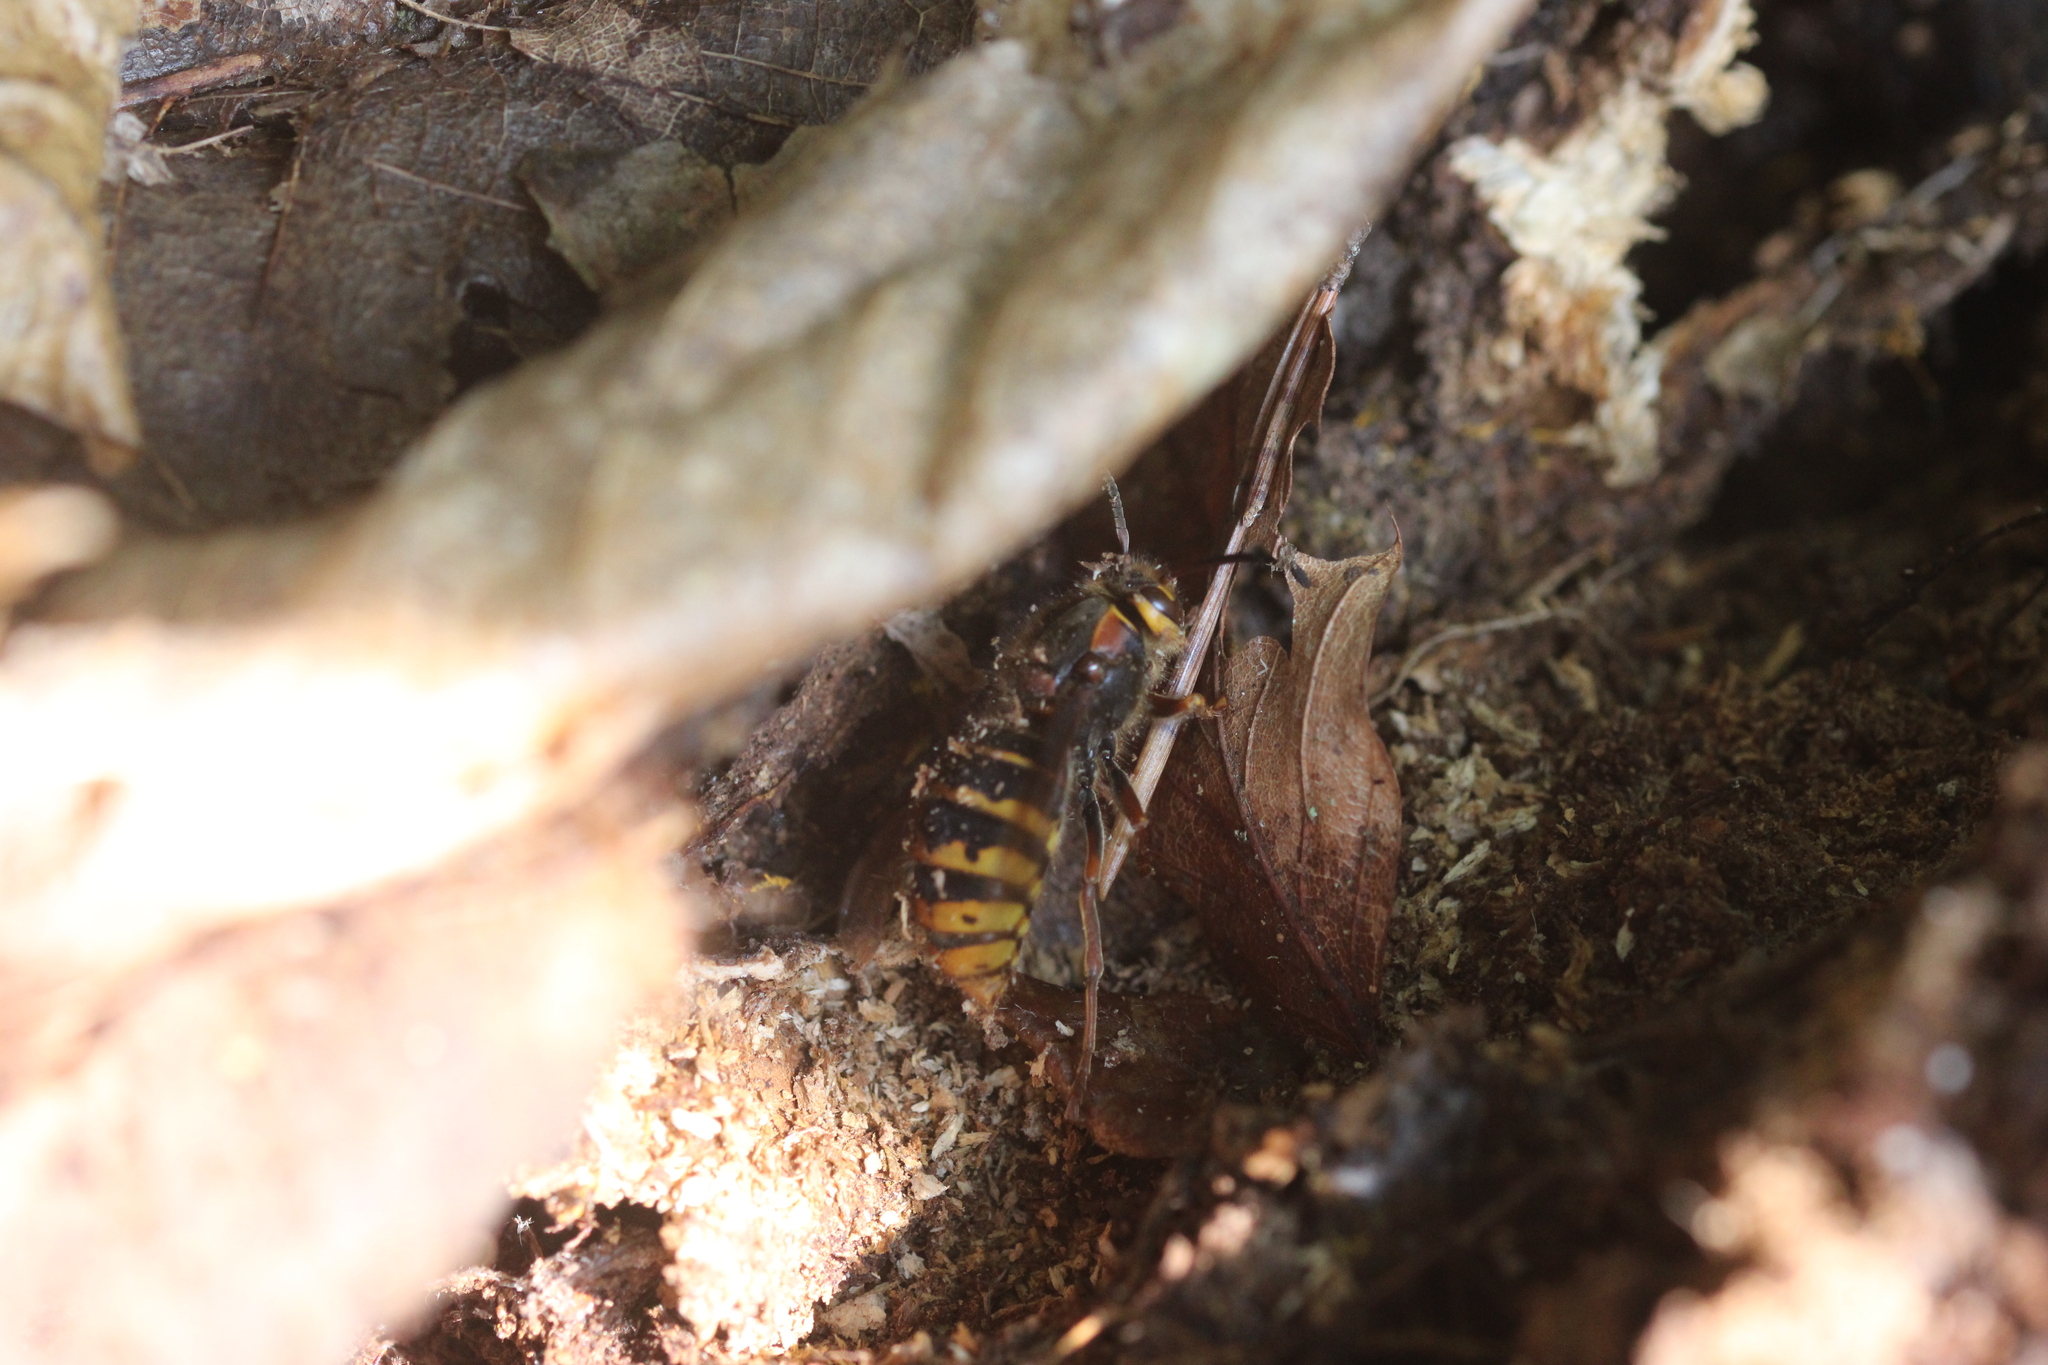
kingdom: Animalia
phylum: Arthropoda
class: Insecta
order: Hymenoptera
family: Vespidae
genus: Dolichovespula
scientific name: Dolichovespula media
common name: Median wasp
